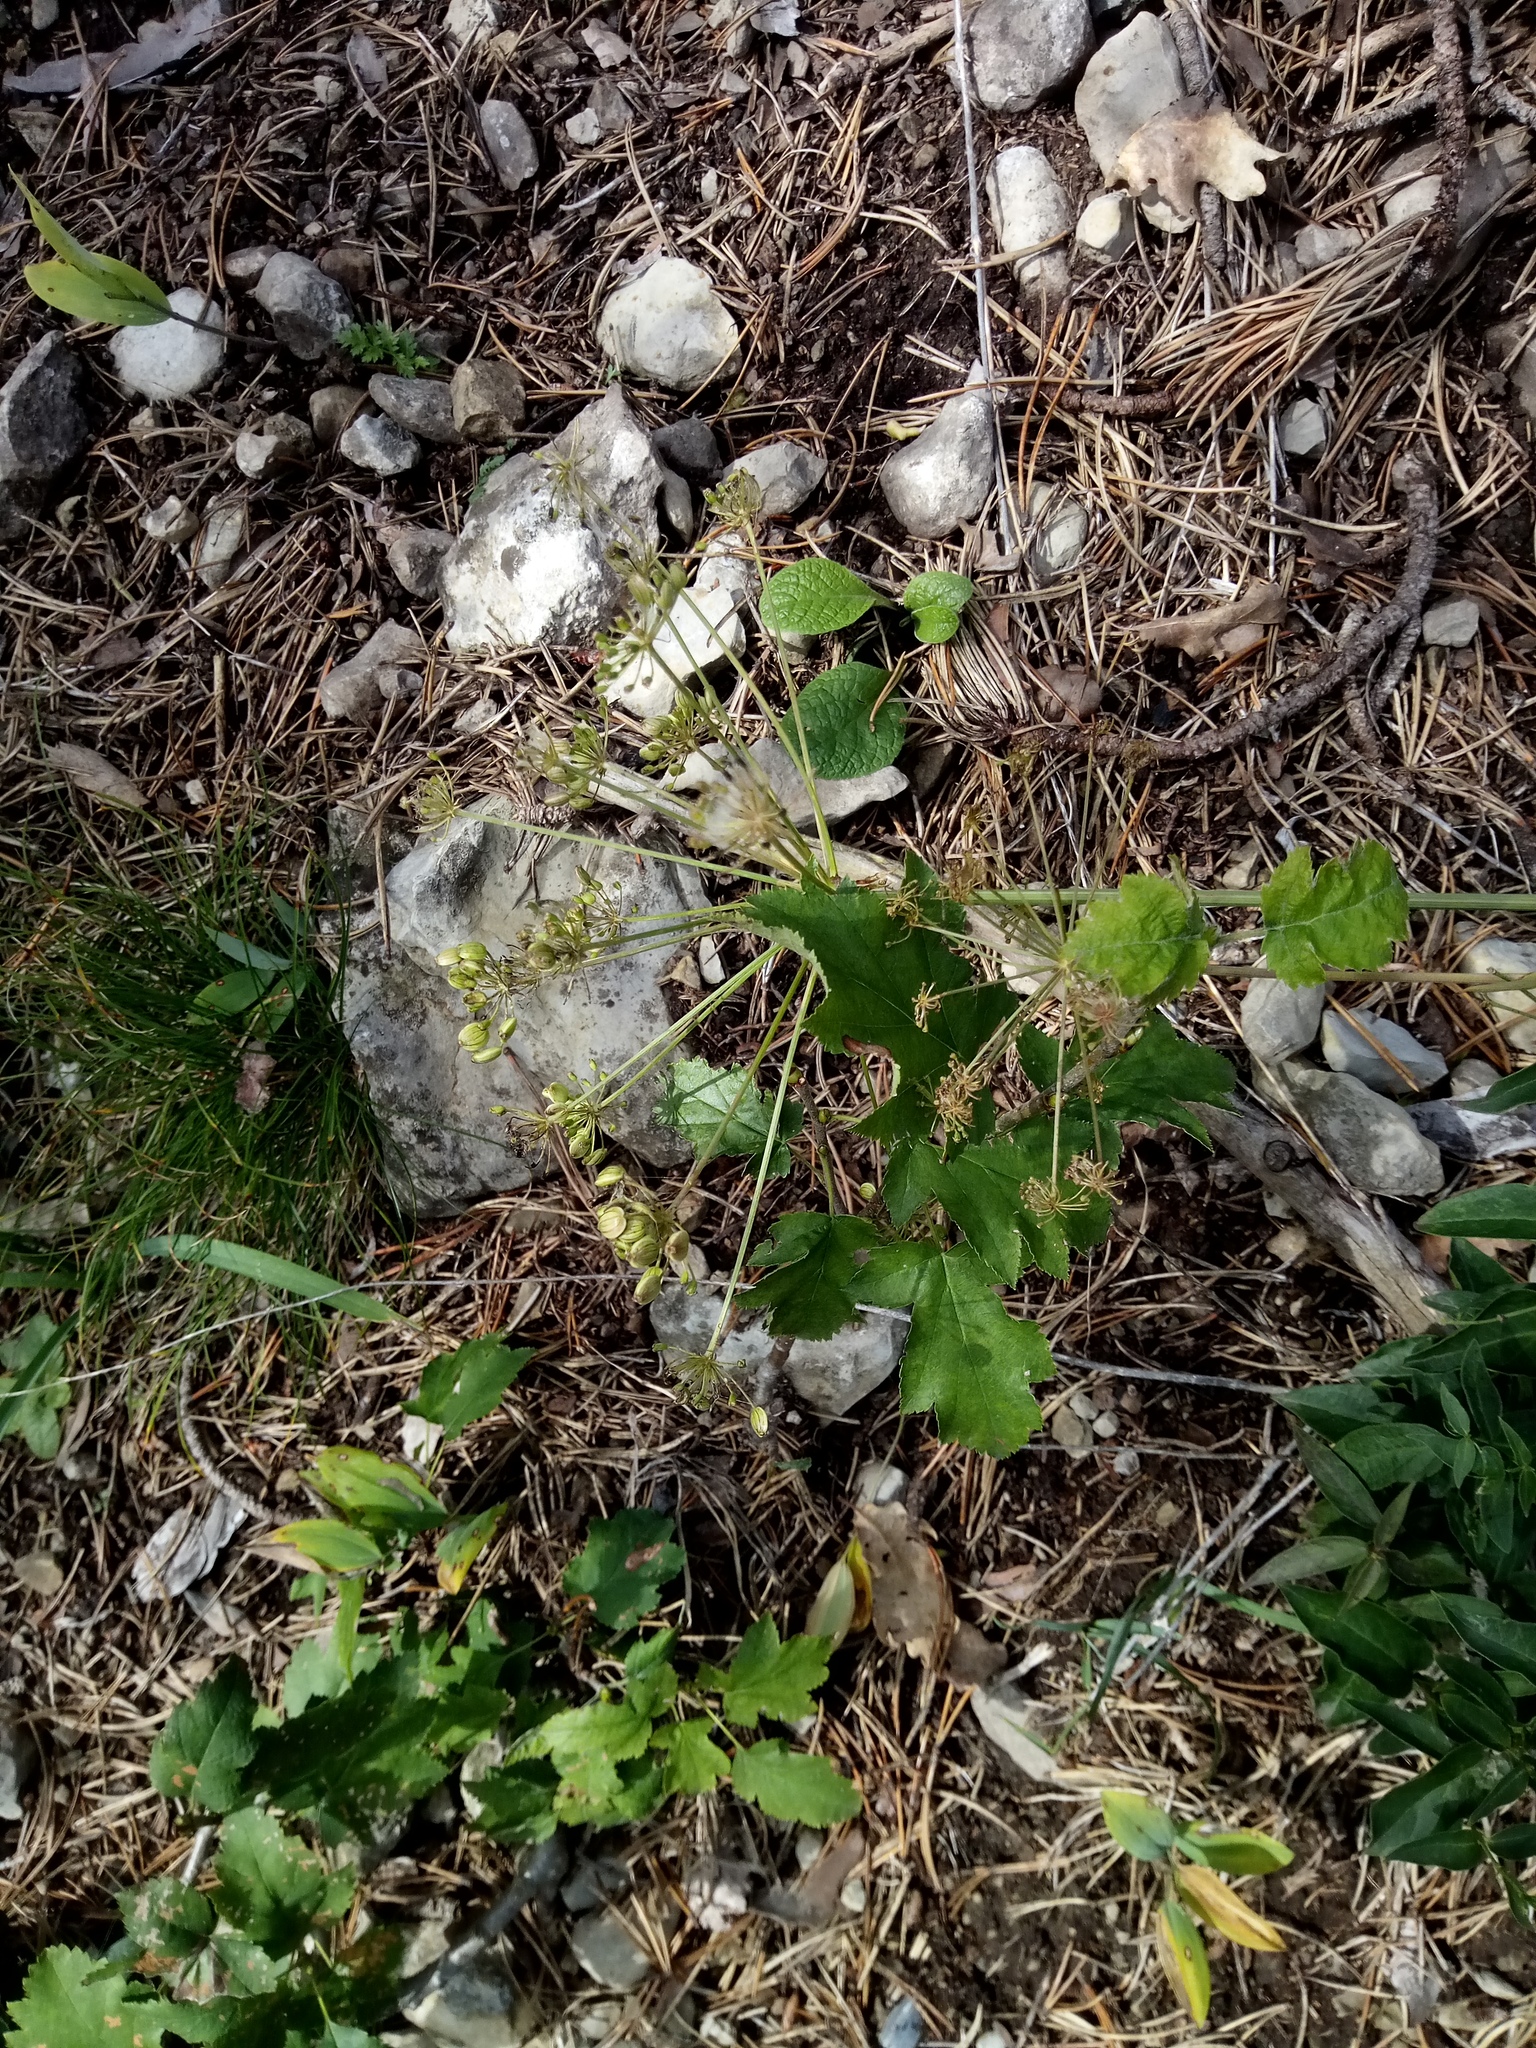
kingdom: Plantae
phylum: Tracheophyta
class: Magnoliopsida
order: Apiales
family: Apiaceae
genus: Heracleum
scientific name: Heracleum sphondylium
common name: Hogweed
